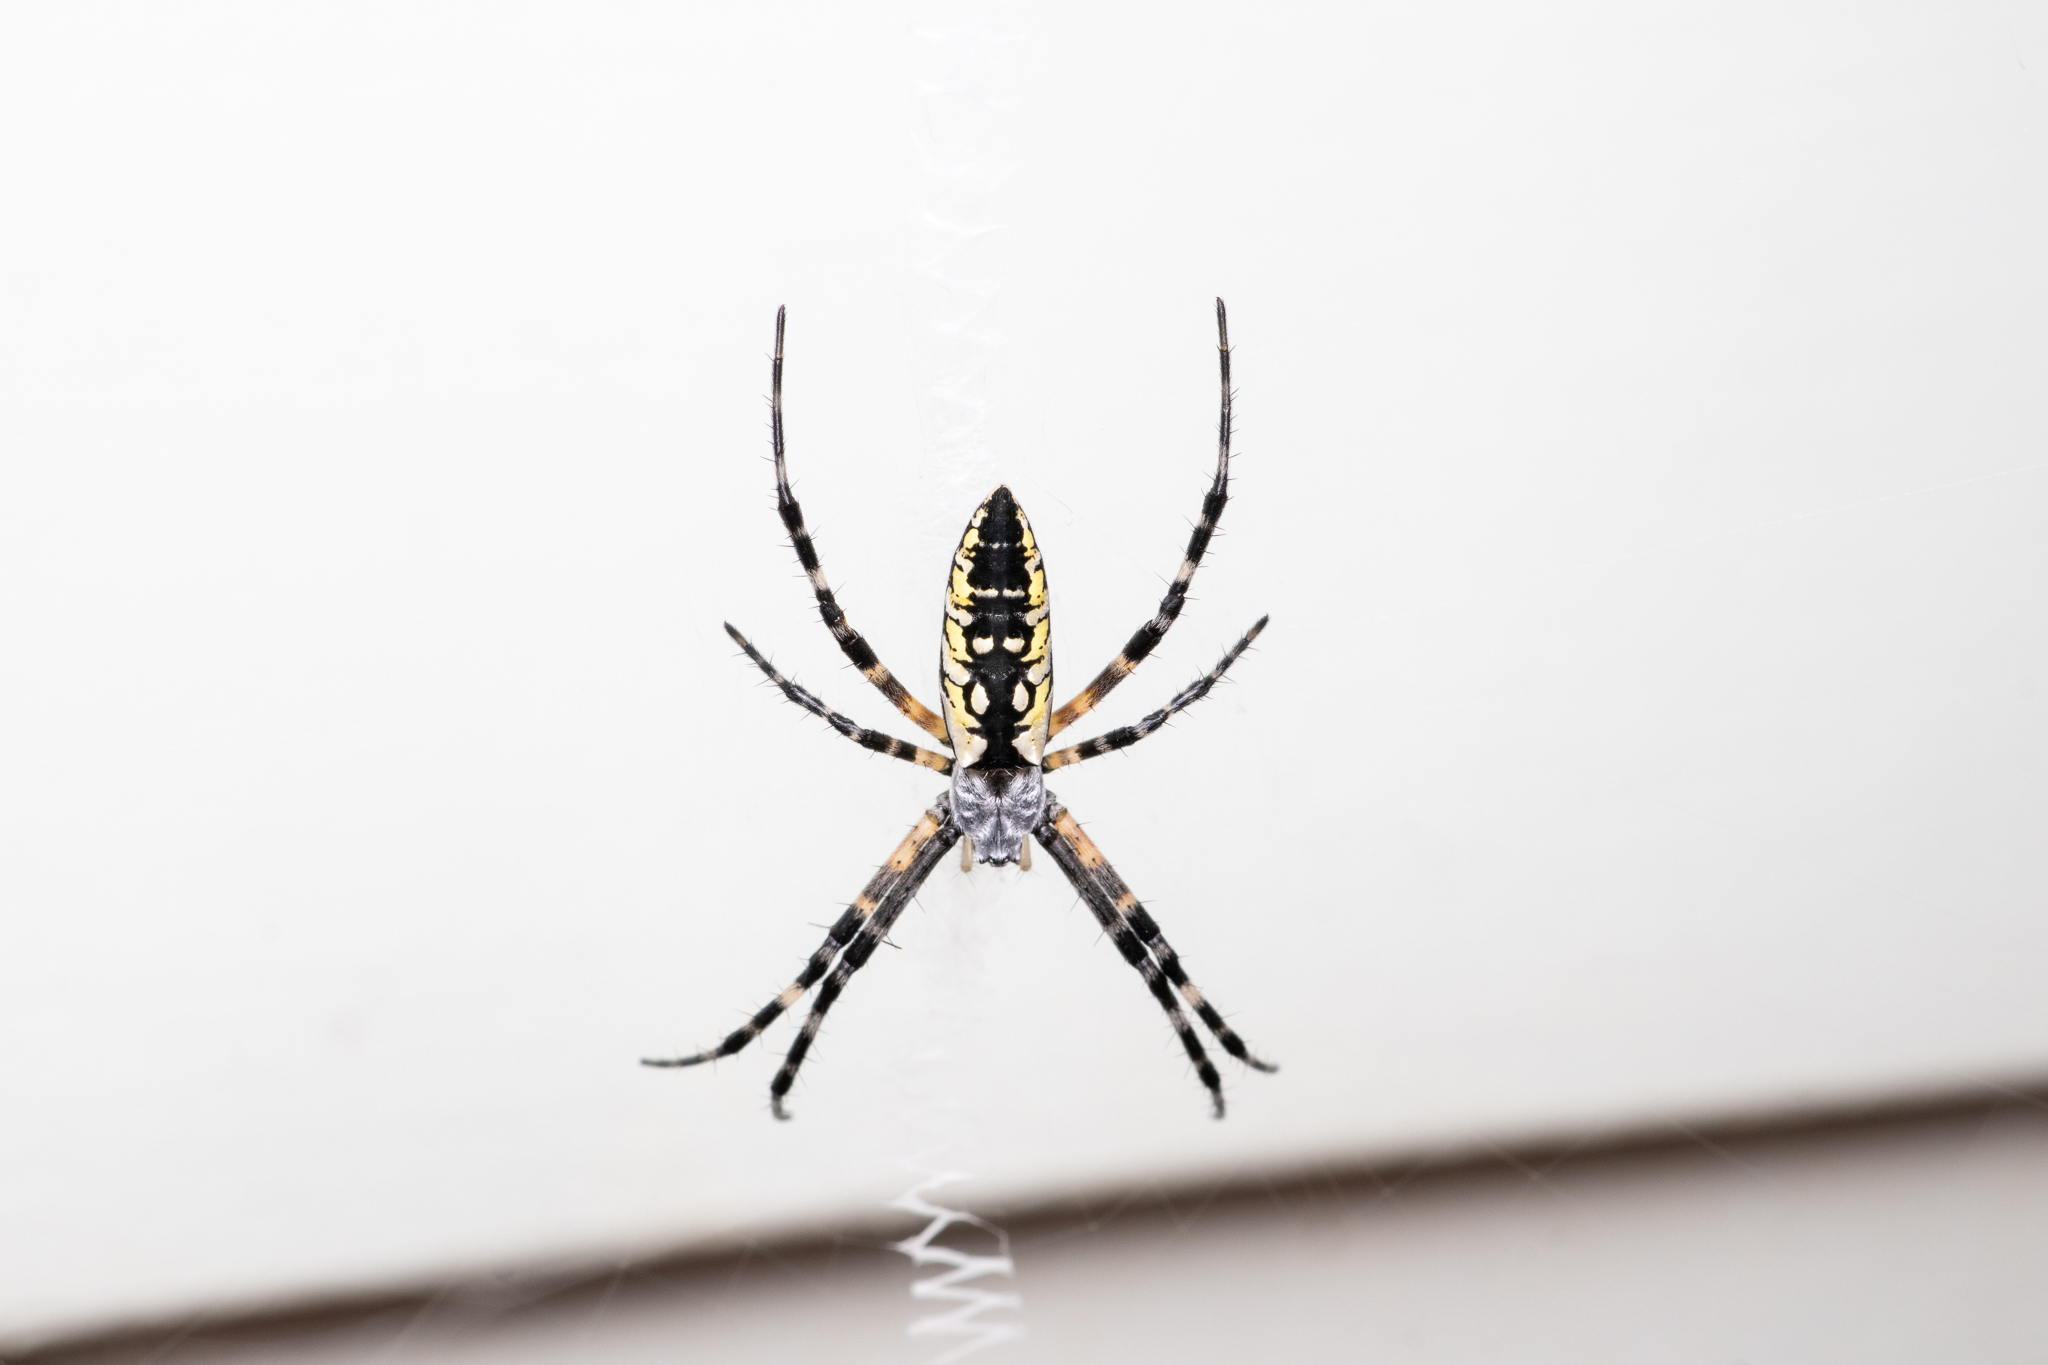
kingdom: Animalia
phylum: Arthropoda
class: Arachnida
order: Araneae
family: Araneidae
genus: Argiope
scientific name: Argiope aurantia
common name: Orb weavers
